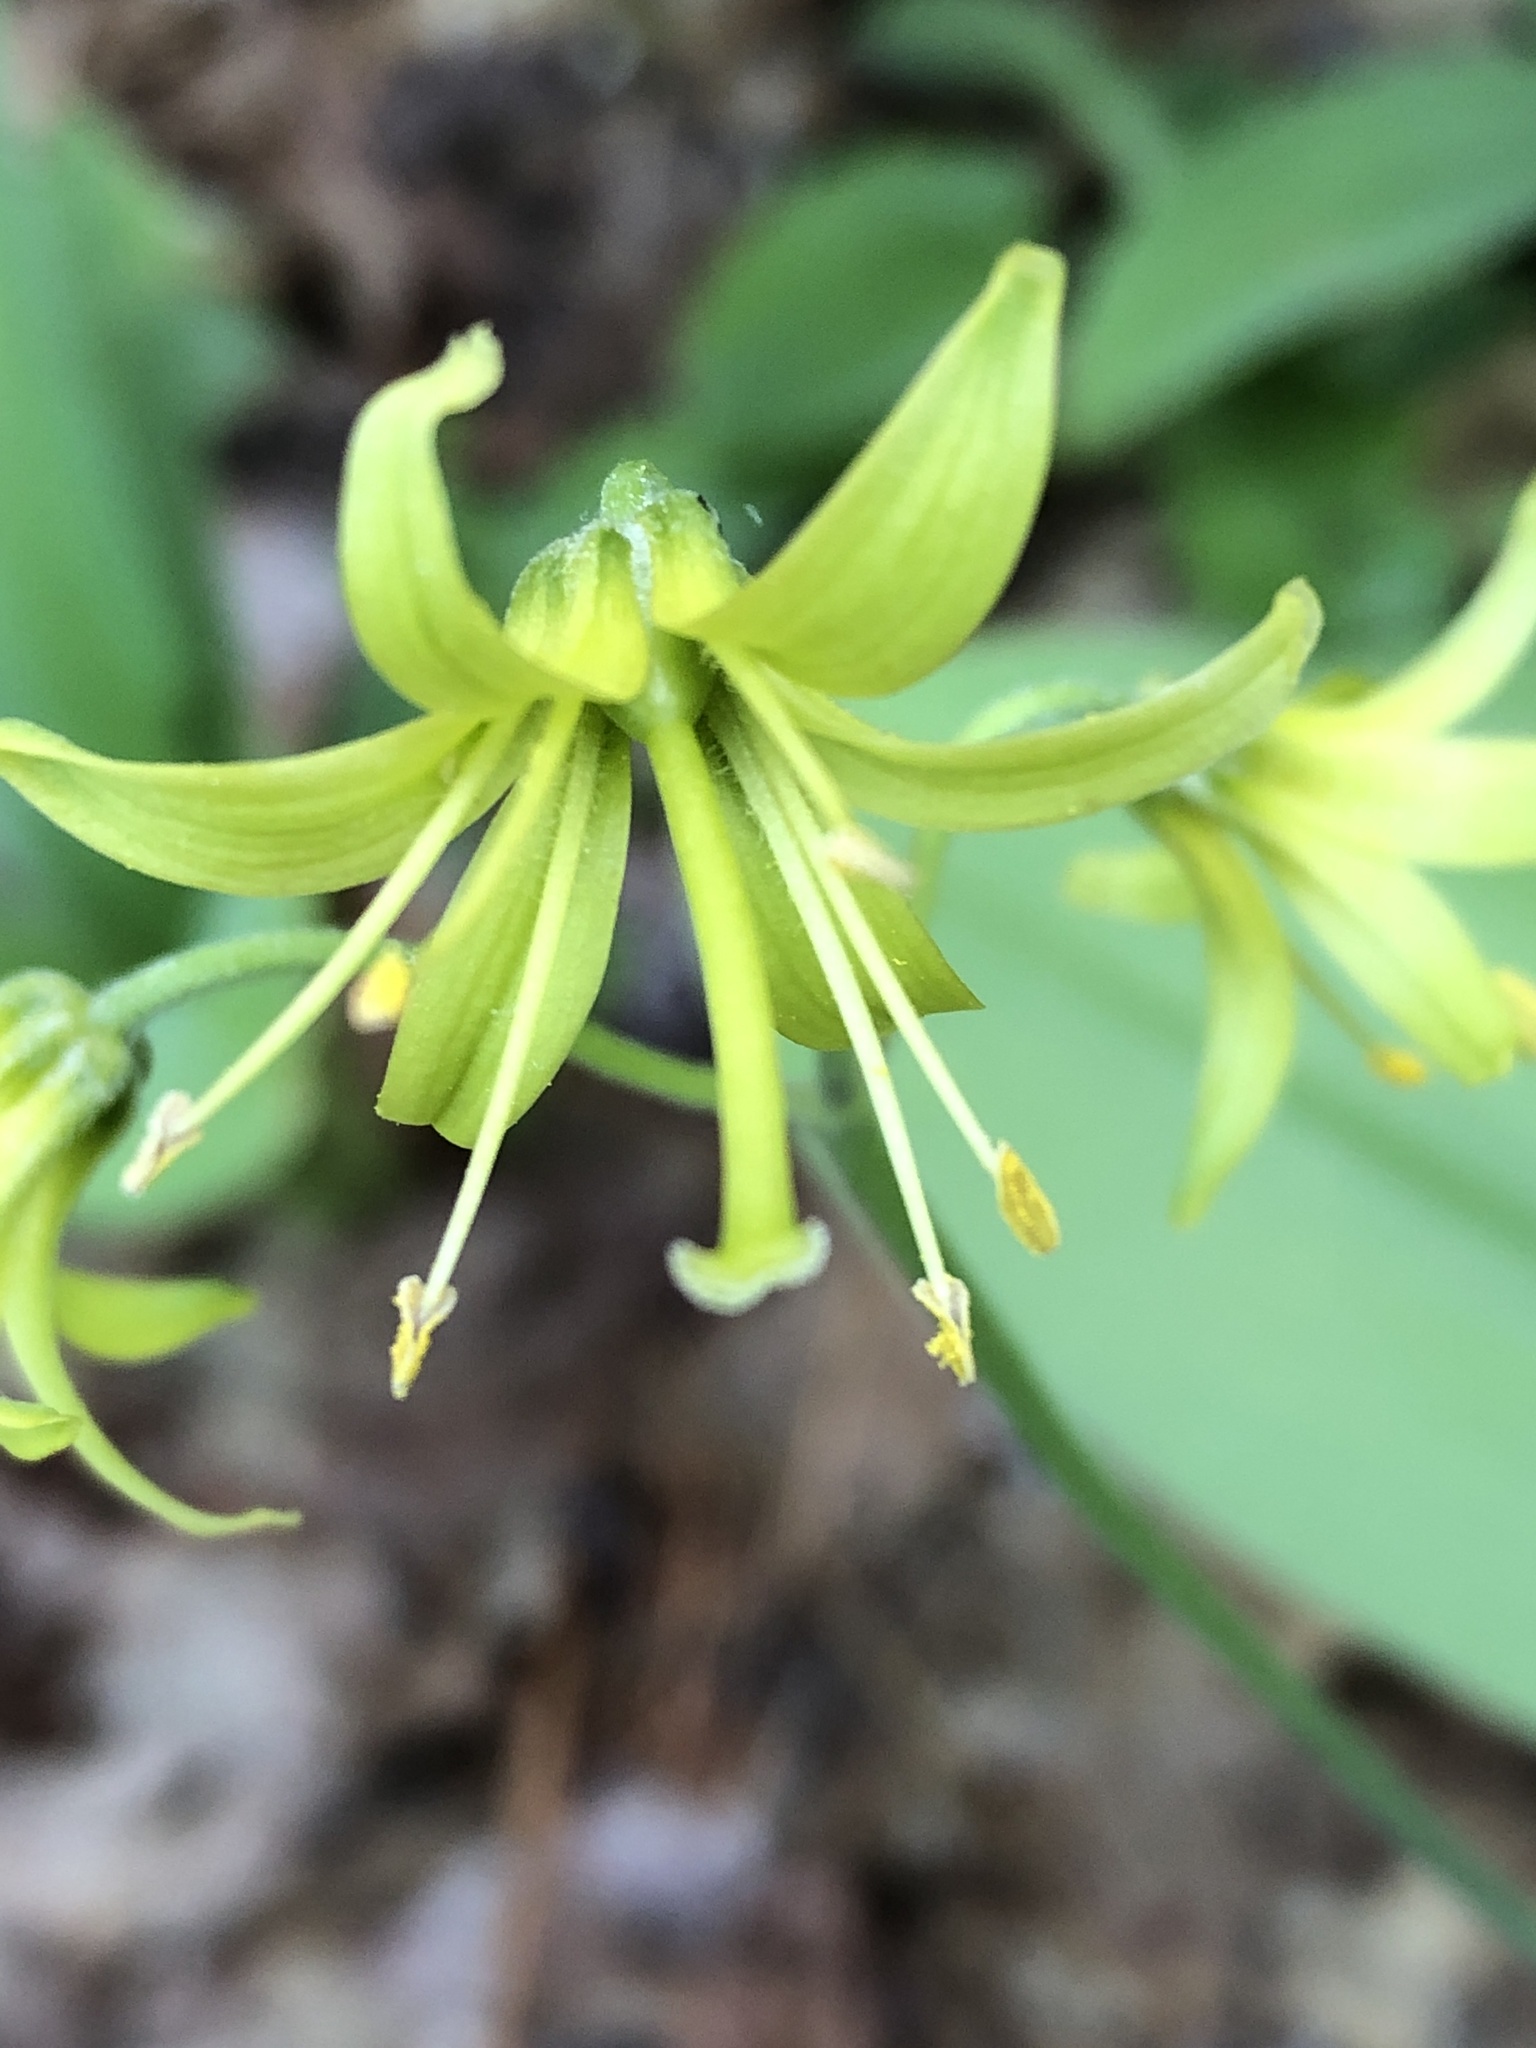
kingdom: Plantae
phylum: Tracheophyta
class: Liliopsida
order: Liliales
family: Liliaceae
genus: Clintonia
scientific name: Clintonia borealis
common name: Yellow clintonia
